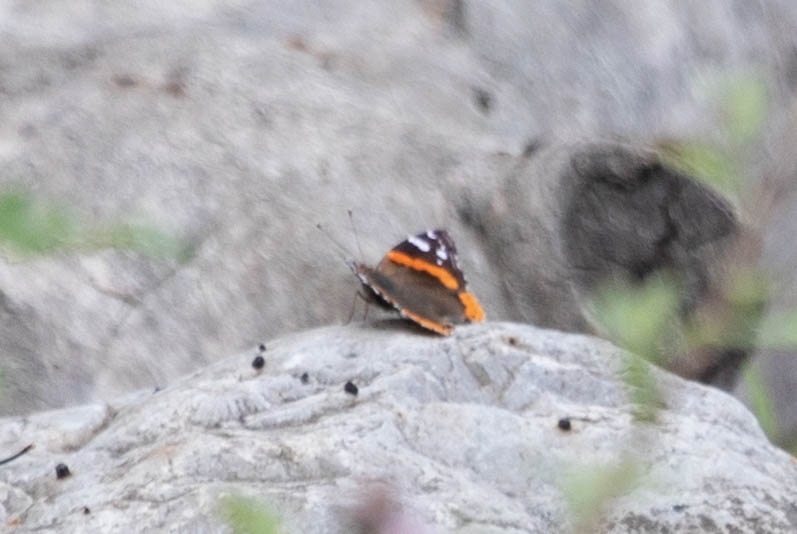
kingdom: Animalia
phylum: Arthropoda
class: Insecta
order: Lepidoptera
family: Nymphalidae
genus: Vanessa
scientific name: Vanessa atalanta
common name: Red admiral
